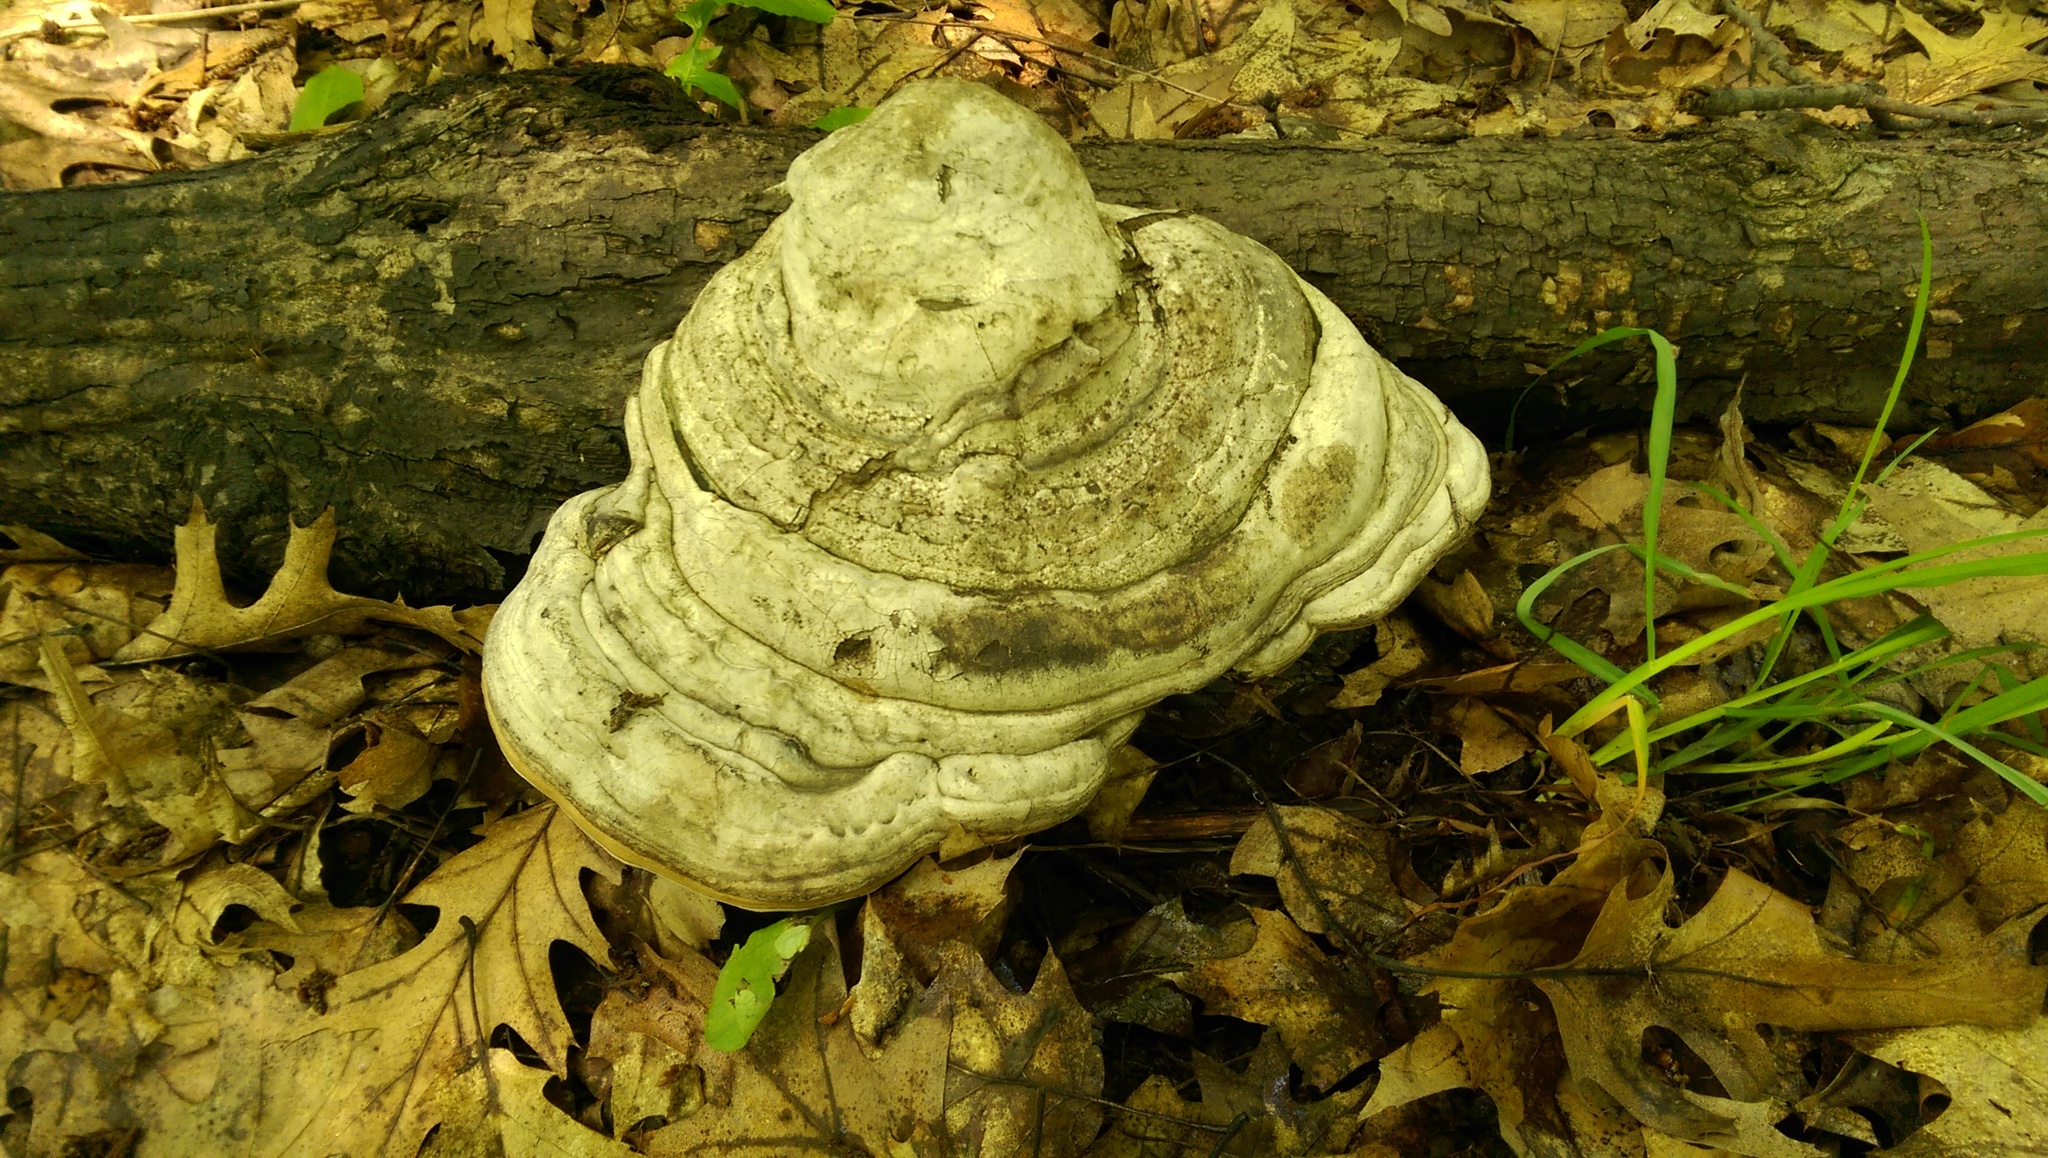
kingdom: Fungi
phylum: Basidiomycota
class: Agaricomycetes
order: Polyporales
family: Polyporaceae
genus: Fomes
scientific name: Fomes fomentarius
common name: Hoof fungus
